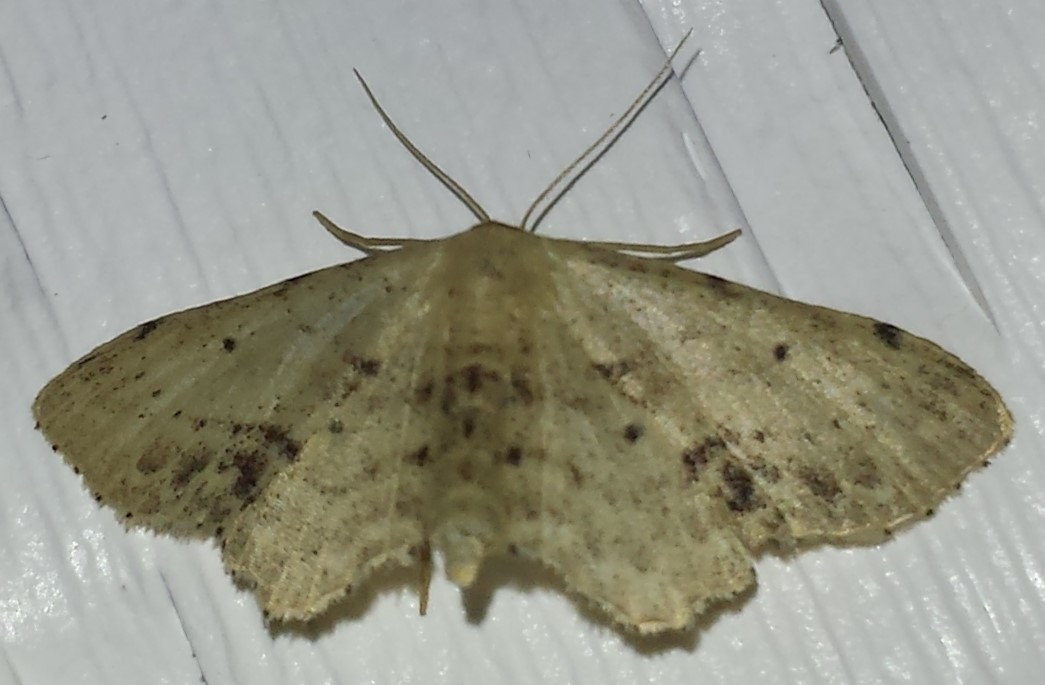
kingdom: Animalia
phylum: Arthropoda
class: Insecta
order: Lepidoptera
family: Geometridae
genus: Idaea
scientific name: Idaea dimidiata
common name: Single-dotted wave
